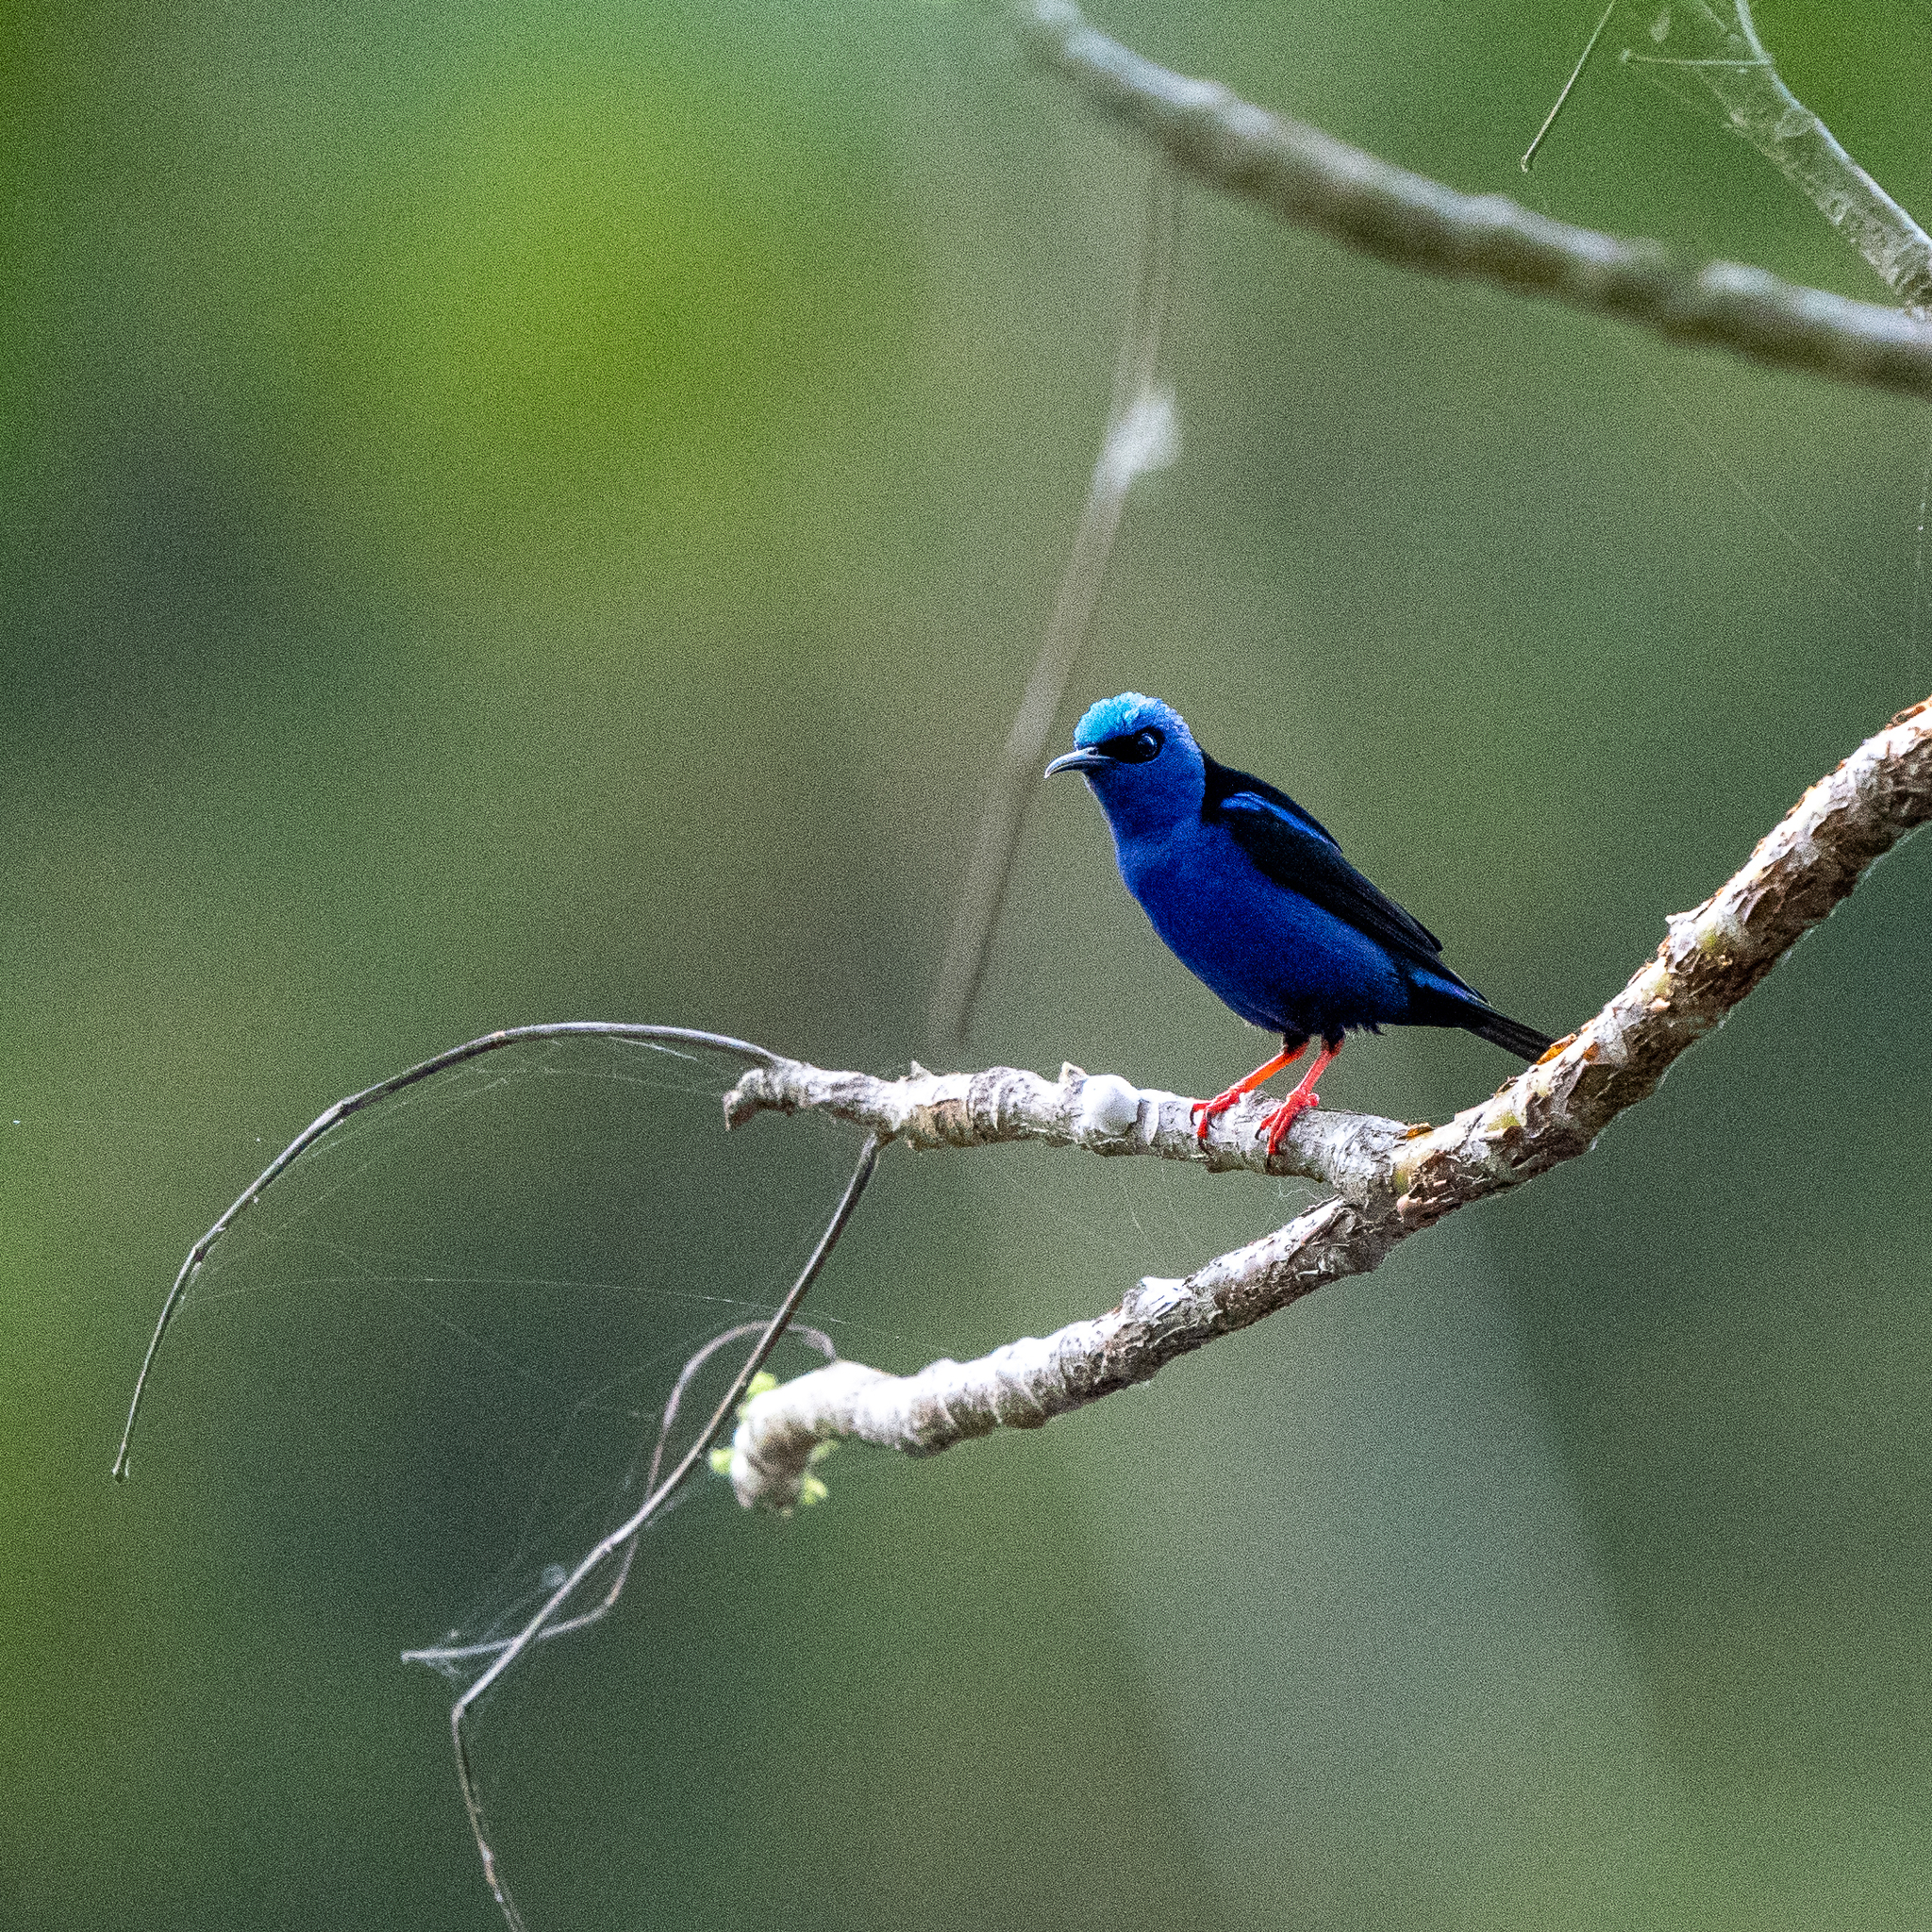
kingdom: Animalia
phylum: Chordata
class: Aves
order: Passeriformes
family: Thraupidae
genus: Cyanerpes
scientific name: Cyanerpes cyaneus
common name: Red-legged honeycreeper
